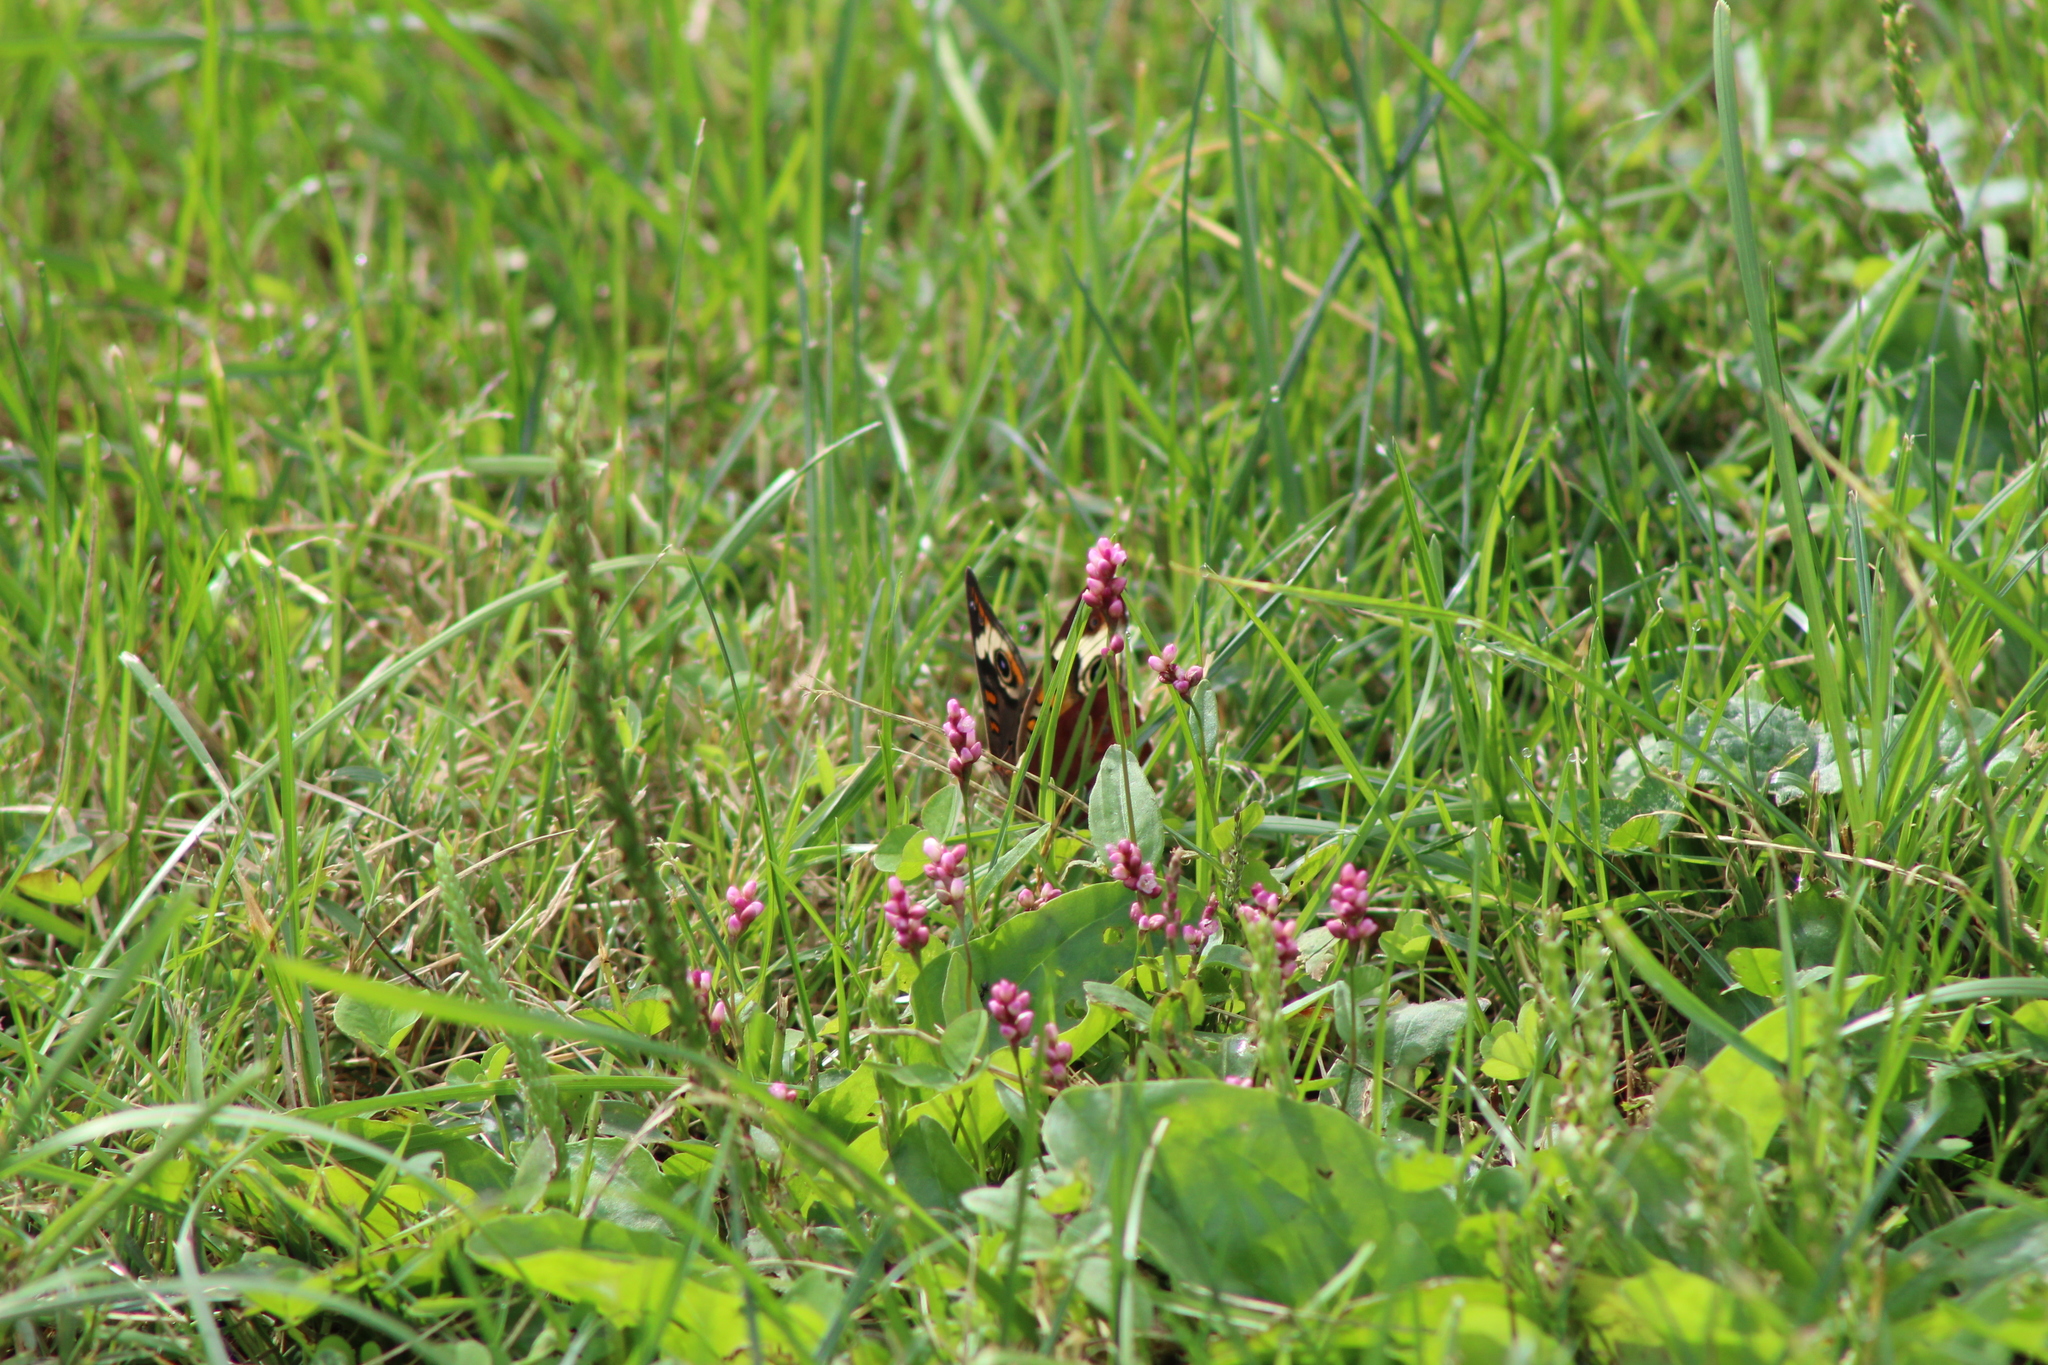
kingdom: Animalia
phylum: Arthropoda
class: Insecta
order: Lepidoptera
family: Nymphalidae
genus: Junonia
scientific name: Junonia coenia
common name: Common buckeye
